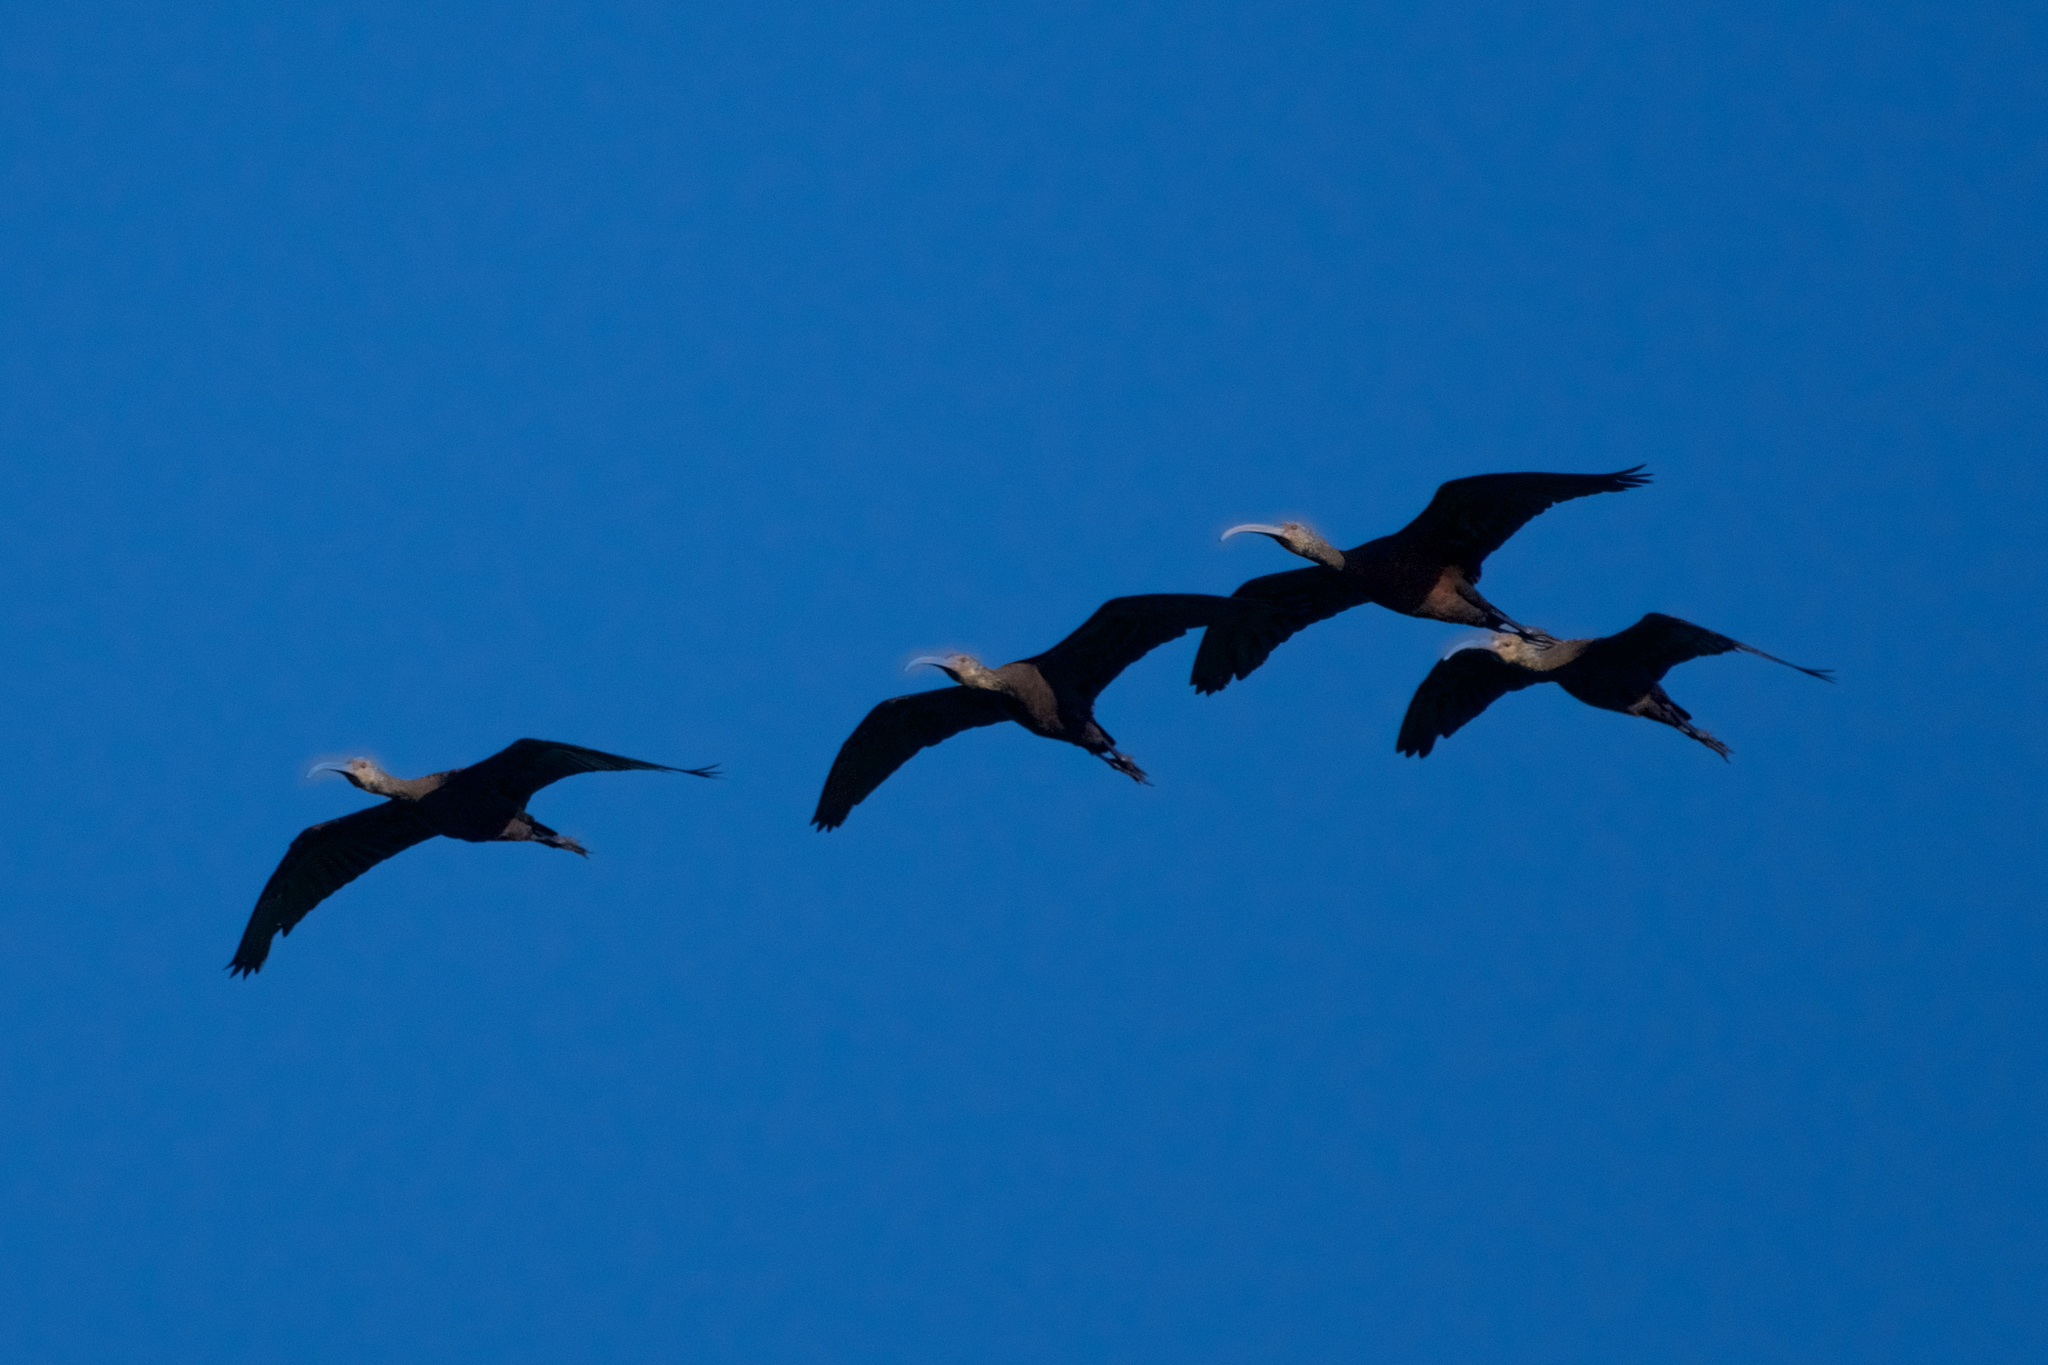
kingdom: Animalia
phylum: Chordata
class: Aves
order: Pelecaniformes
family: Threskiornithidae
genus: Plegadis
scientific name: Plegadis chihi
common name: White-faced ibis
